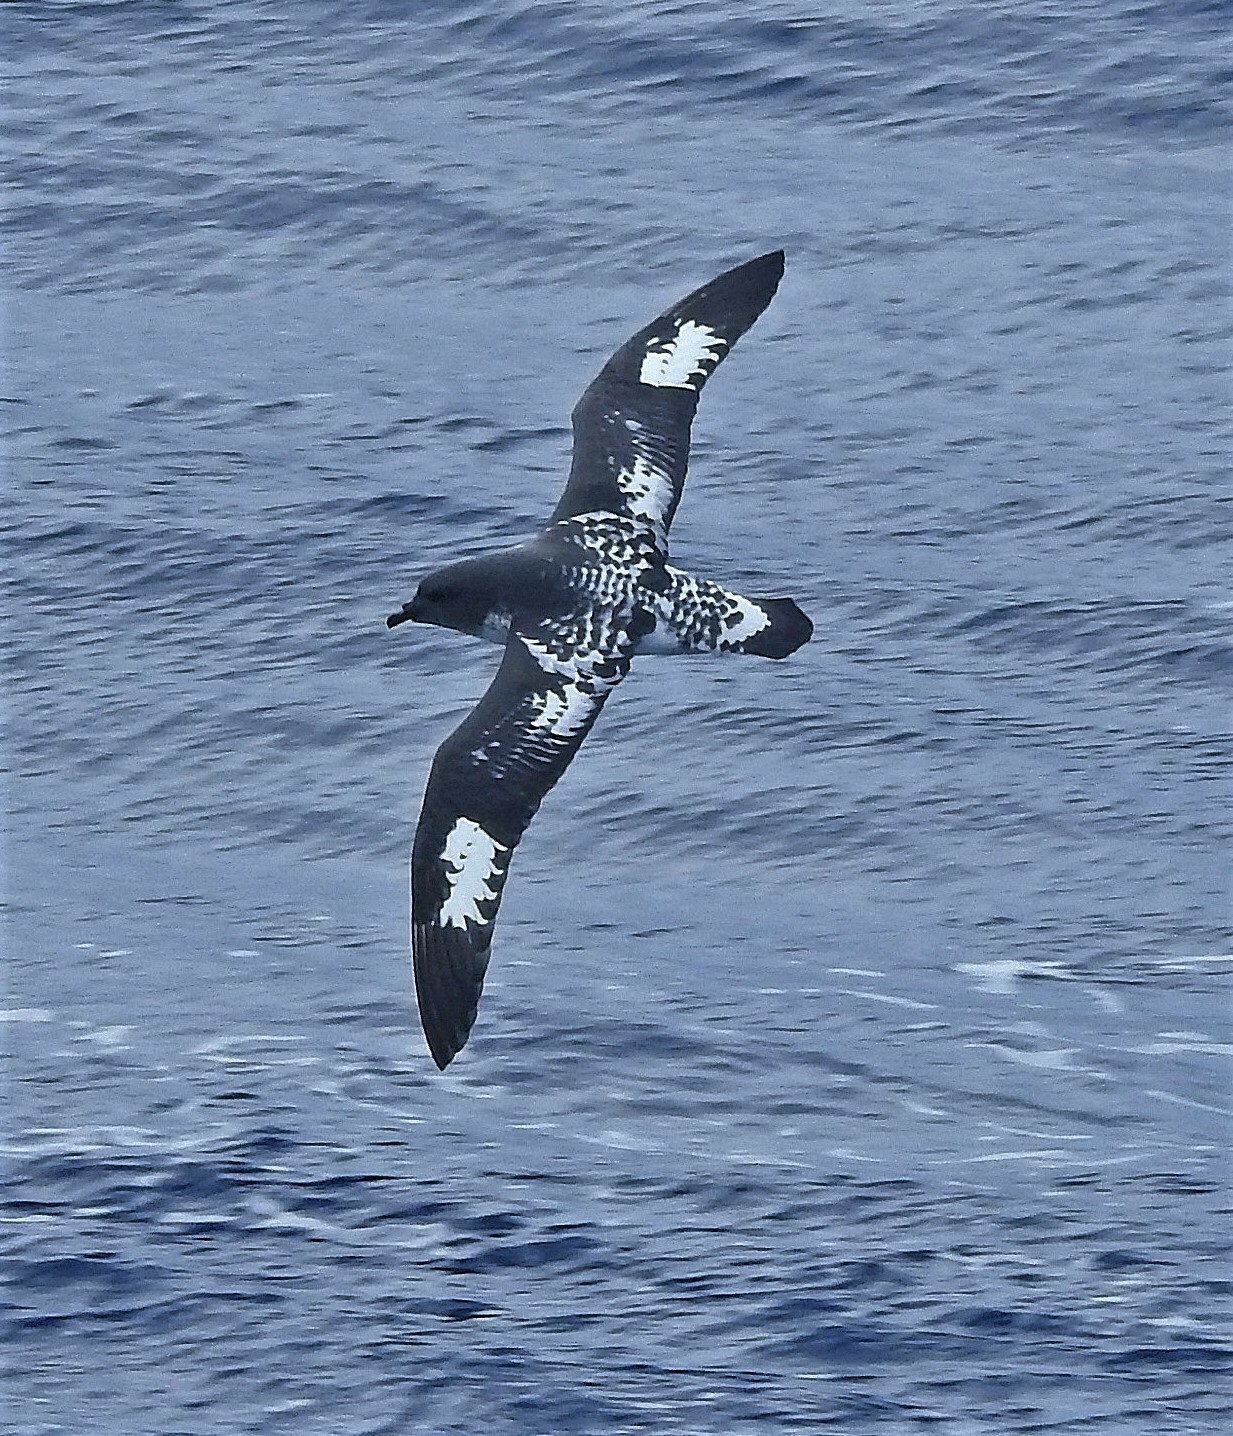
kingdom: Animalia
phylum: Chordata
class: Aves
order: Procellariiformes
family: Procellariidae
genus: Daption
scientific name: Daption capense
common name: Cape petrel
